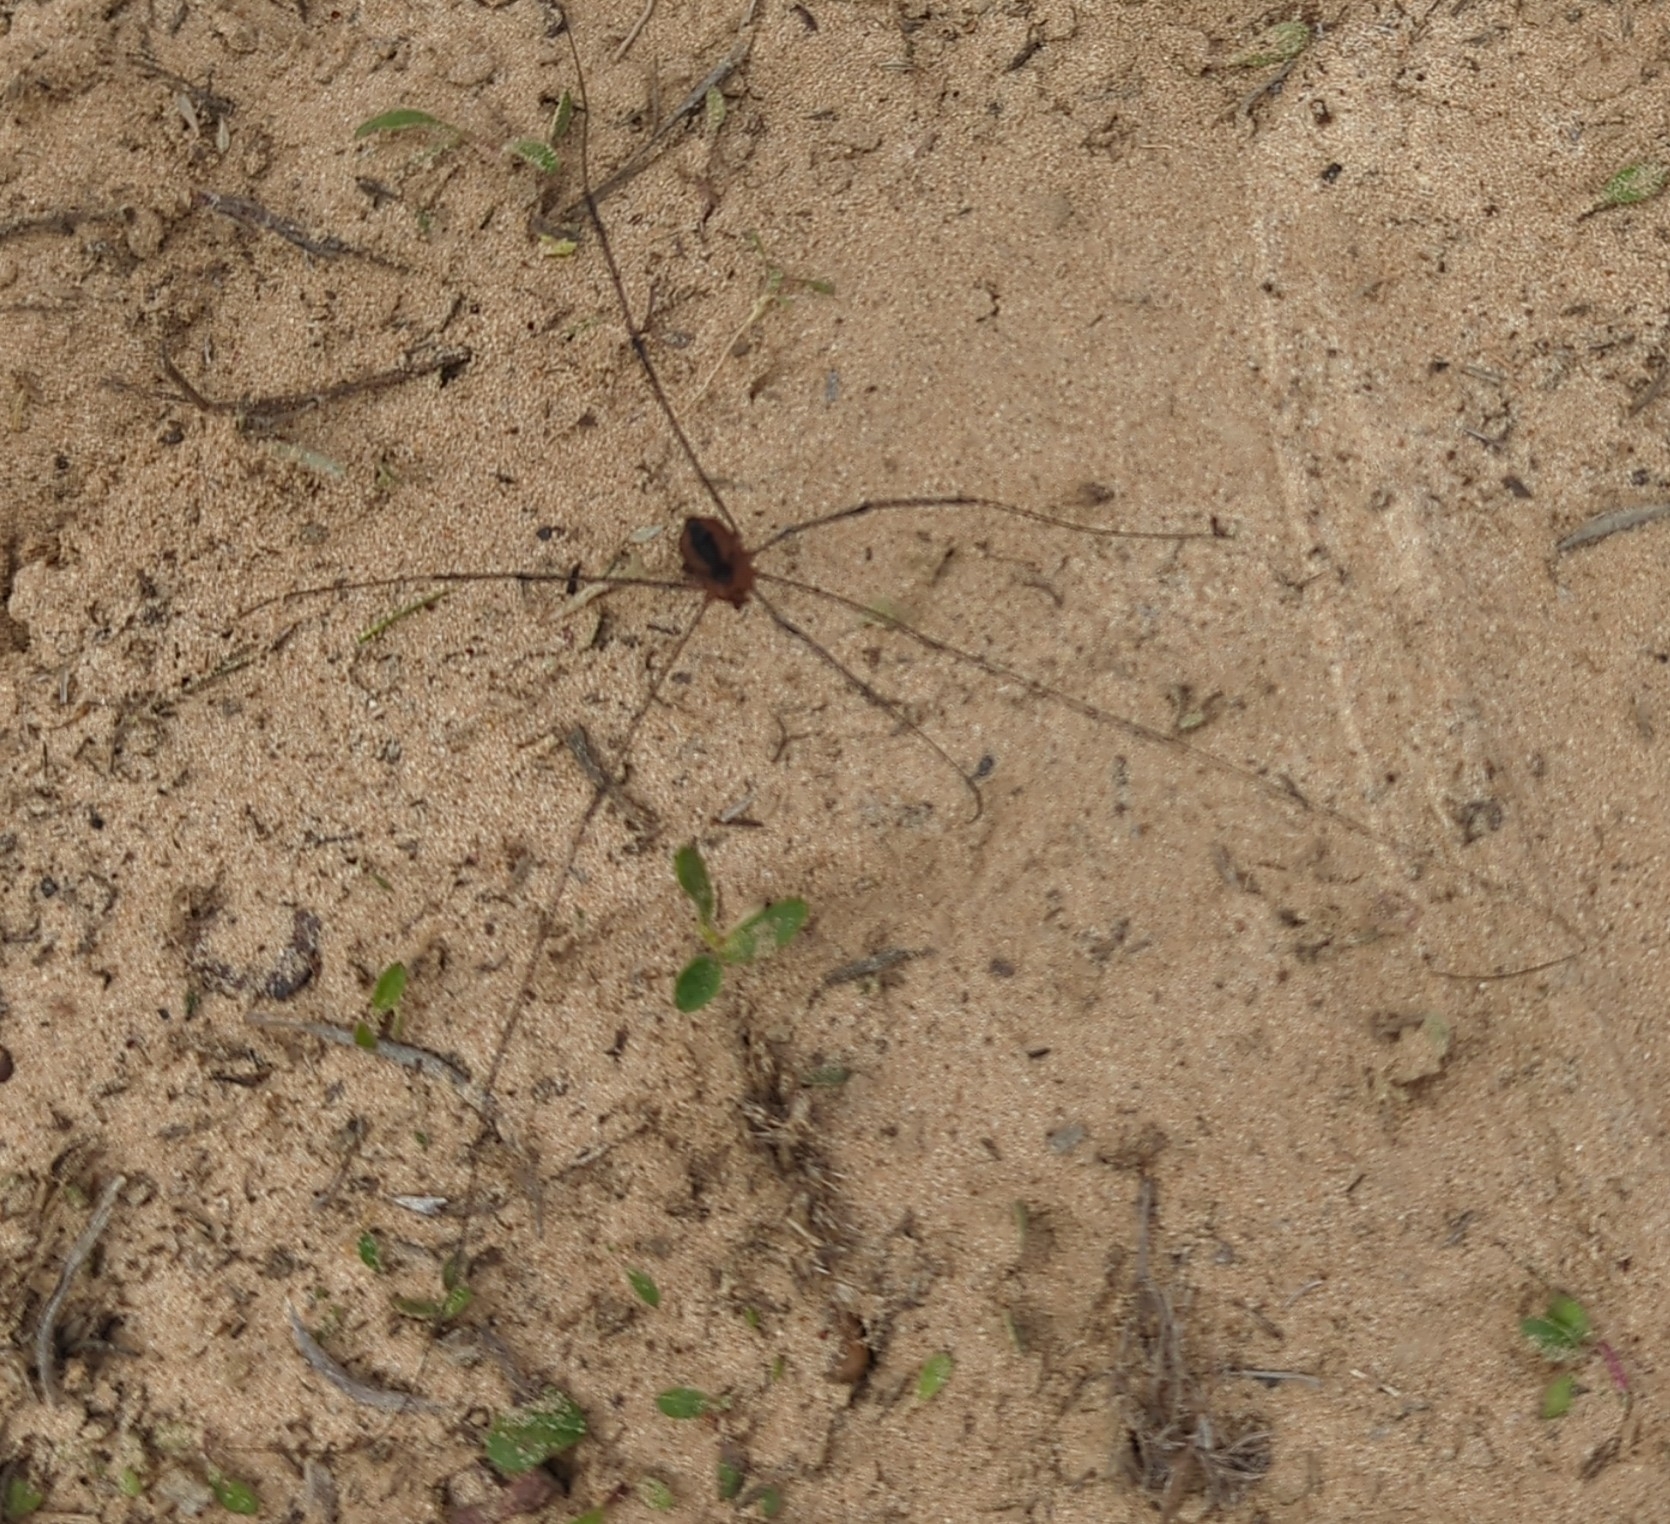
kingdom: Animalia
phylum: Arthropoda
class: Arachnida
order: Opiliones
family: Sclerosomatidae
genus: Leiobunum
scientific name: Leiobunum vittatum
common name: Eastern harvestman
